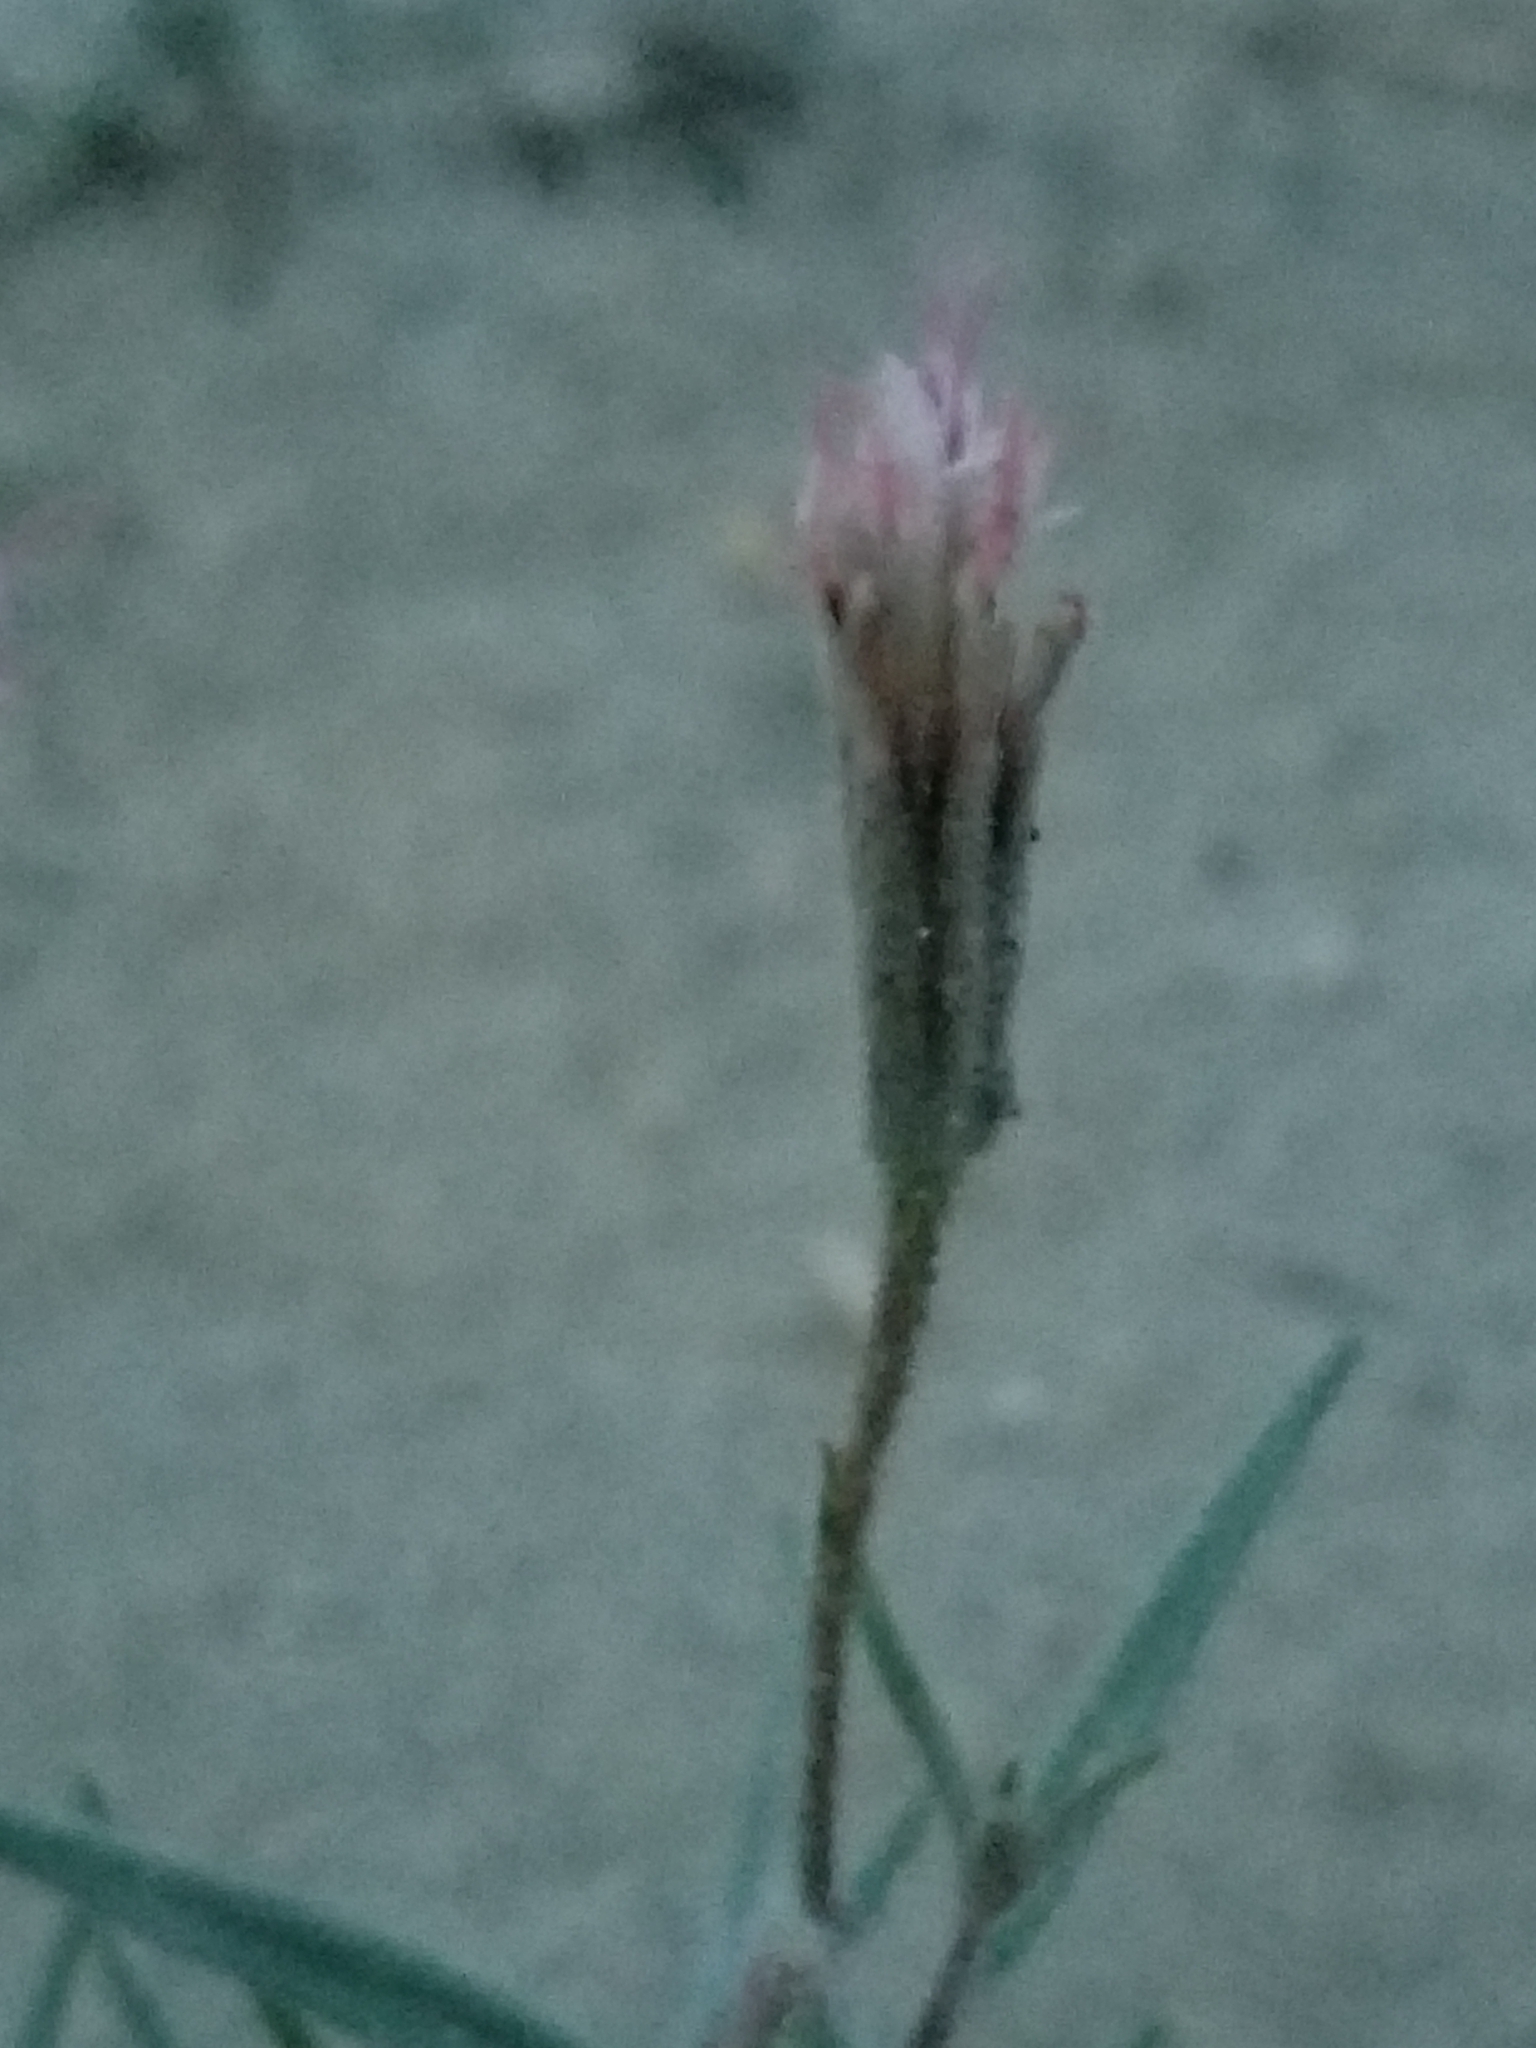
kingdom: Plantae
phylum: Tracheophyta
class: Magnoliopsida
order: Asterales
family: Asteraceae
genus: Palafoxia
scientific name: Palafoxia arida
